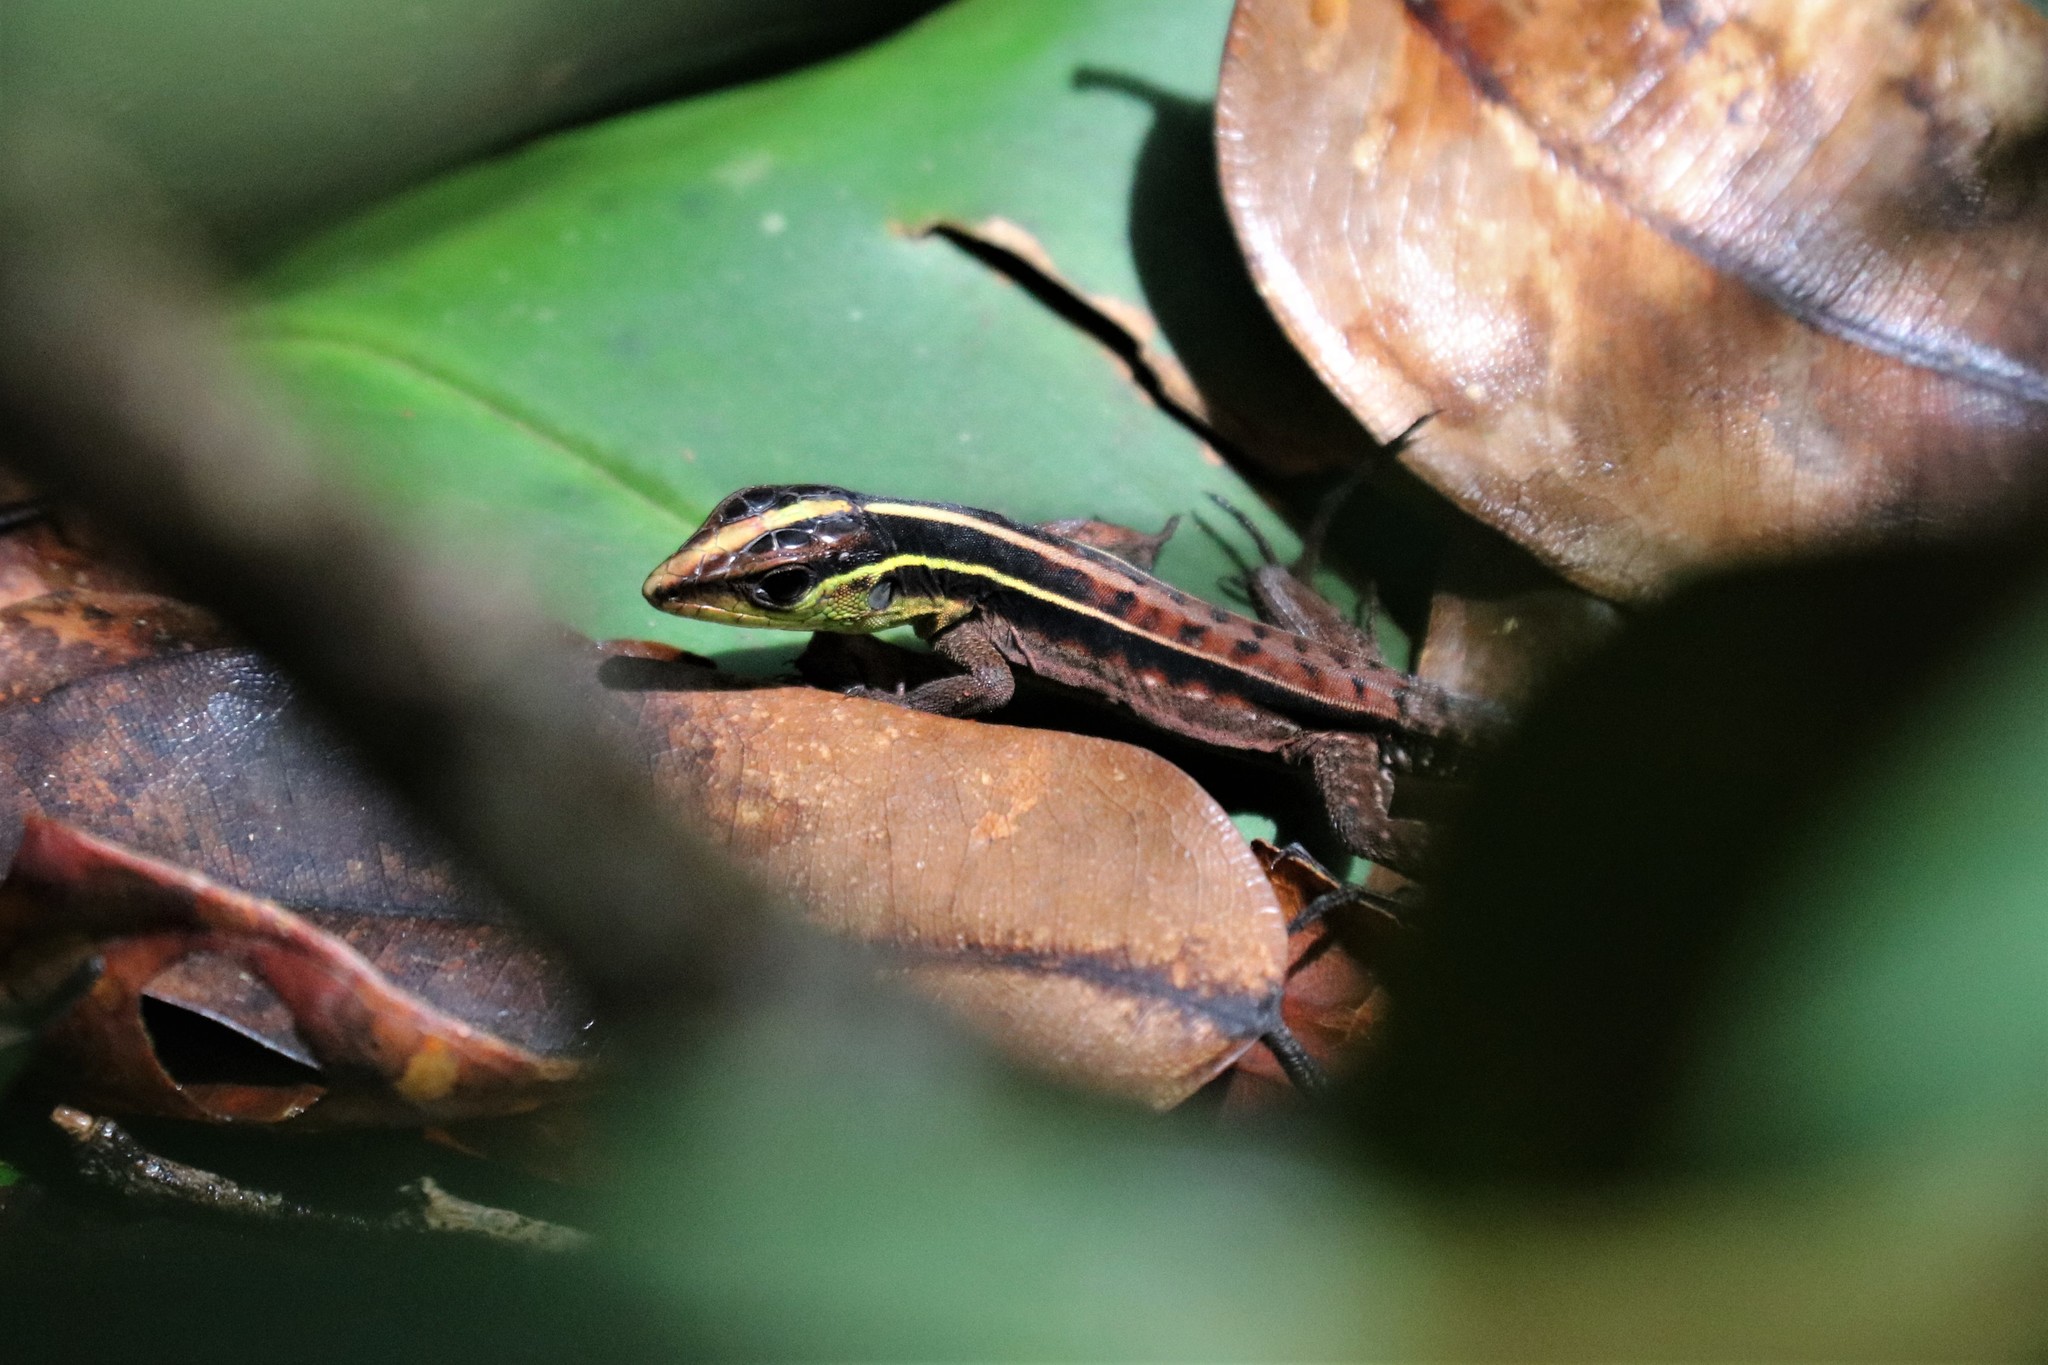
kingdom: Animalia
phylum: Chordata
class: Squamata
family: Teiidae
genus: Kentropyx
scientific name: Kentropyx calcarata
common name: Striped forest whiptail
